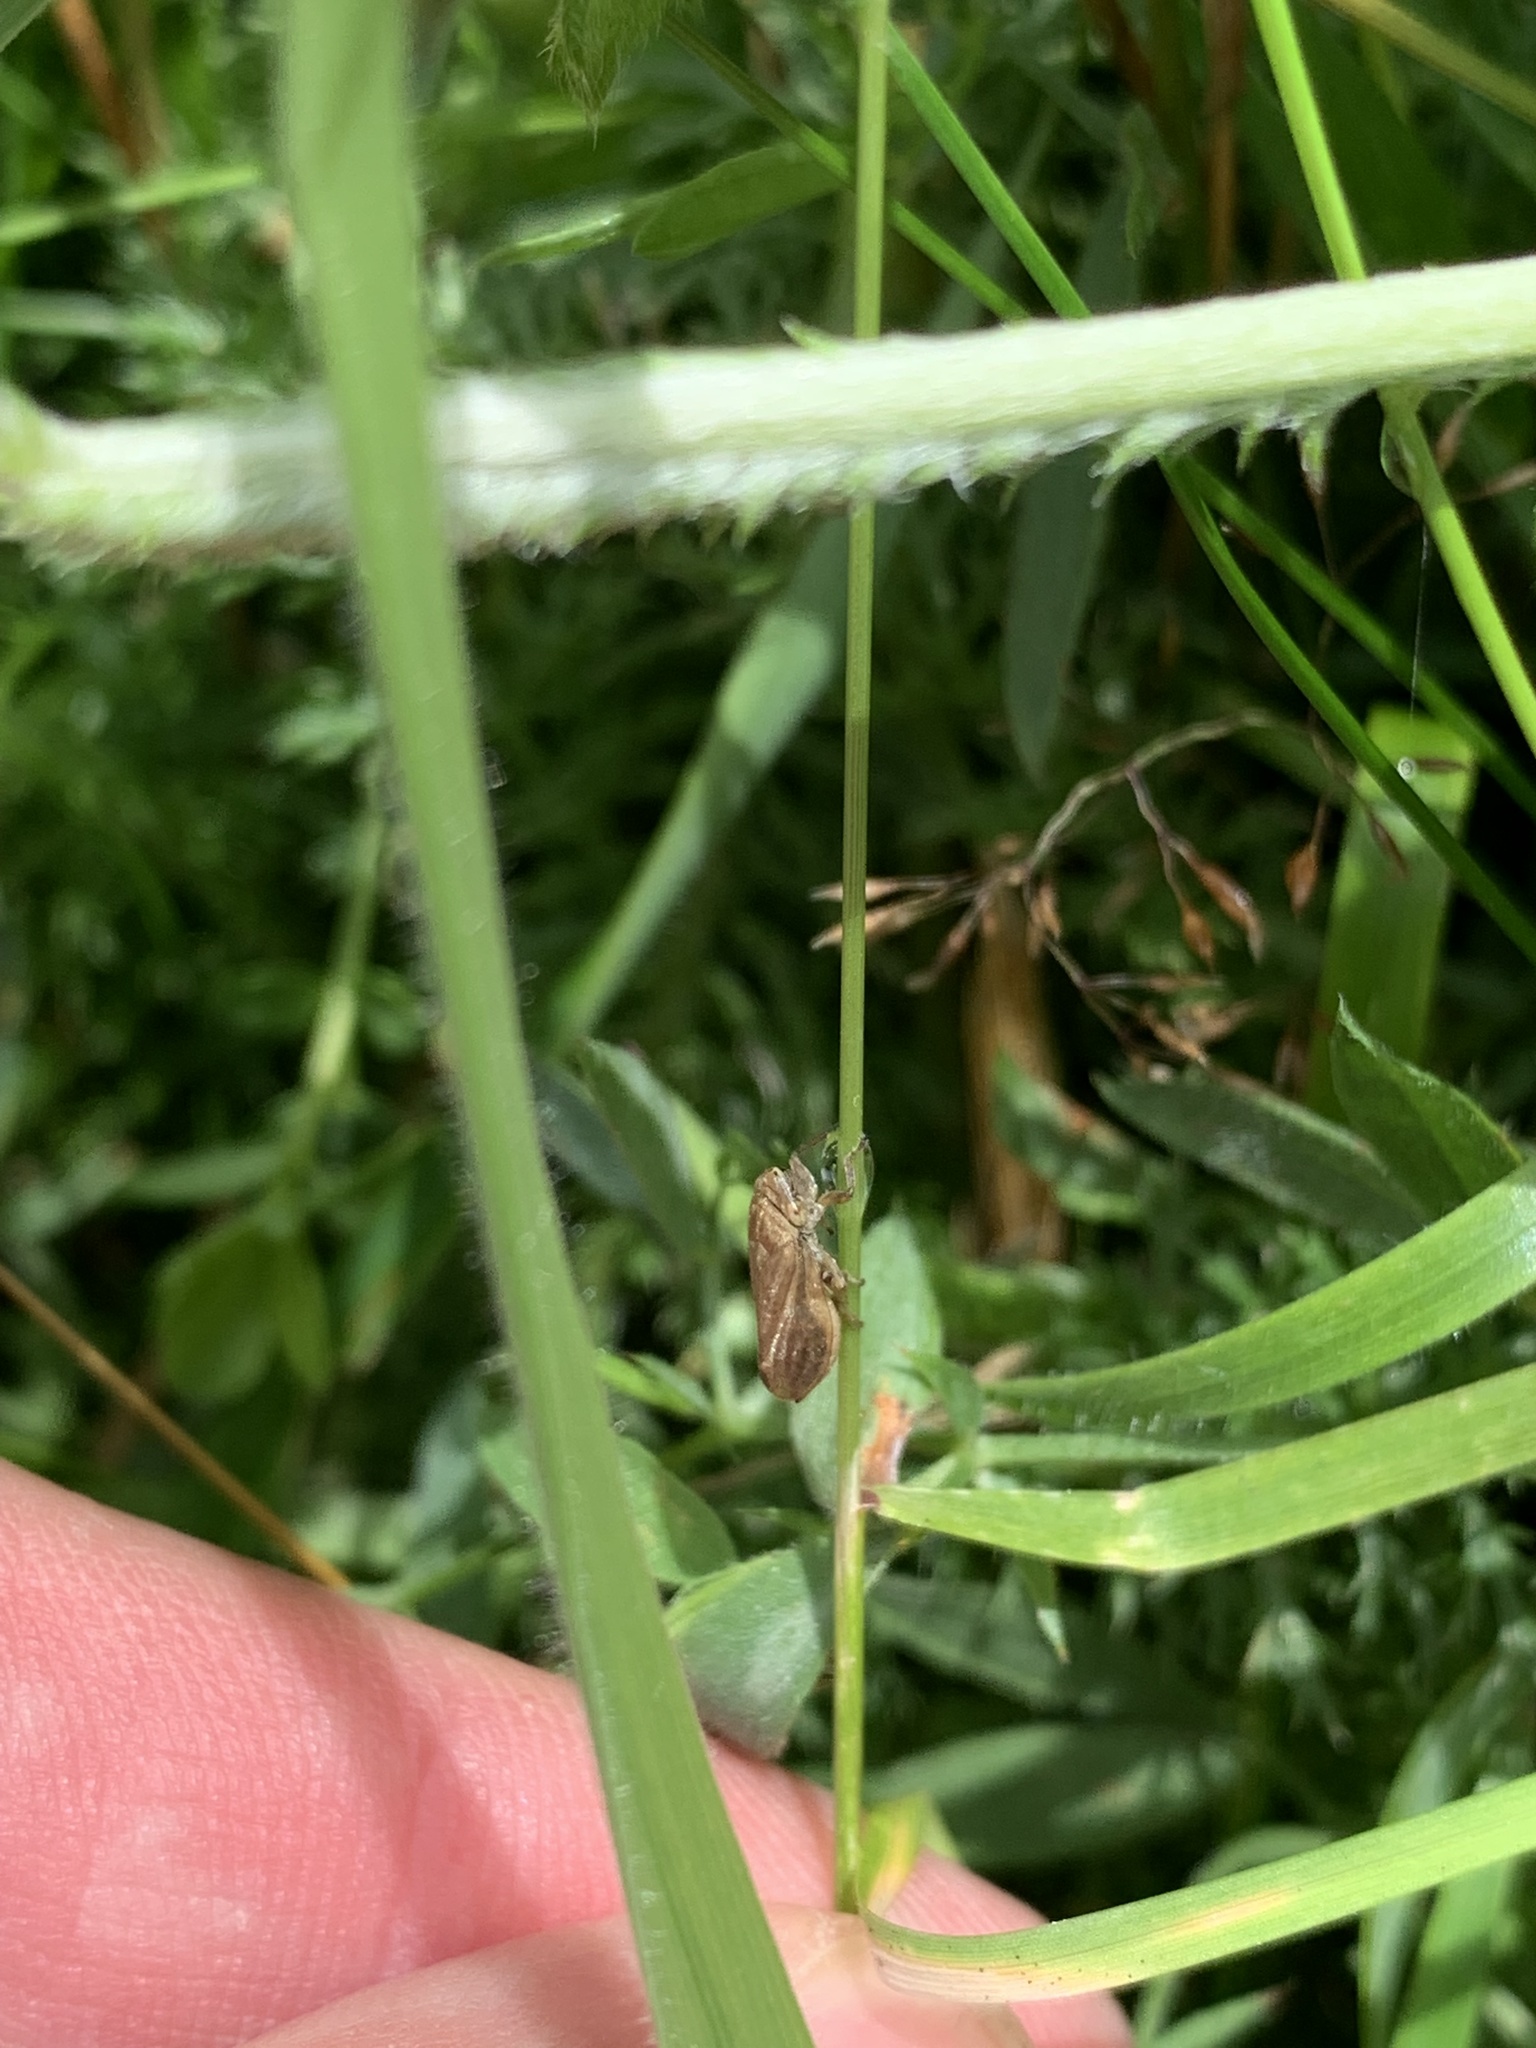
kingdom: Animalia
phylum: Arthropoda
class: Insecta
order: Hemiptera
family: Aphrophoridae
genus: Philaenus
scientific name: Philaenus spumarius
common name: Meadow spittlebug
